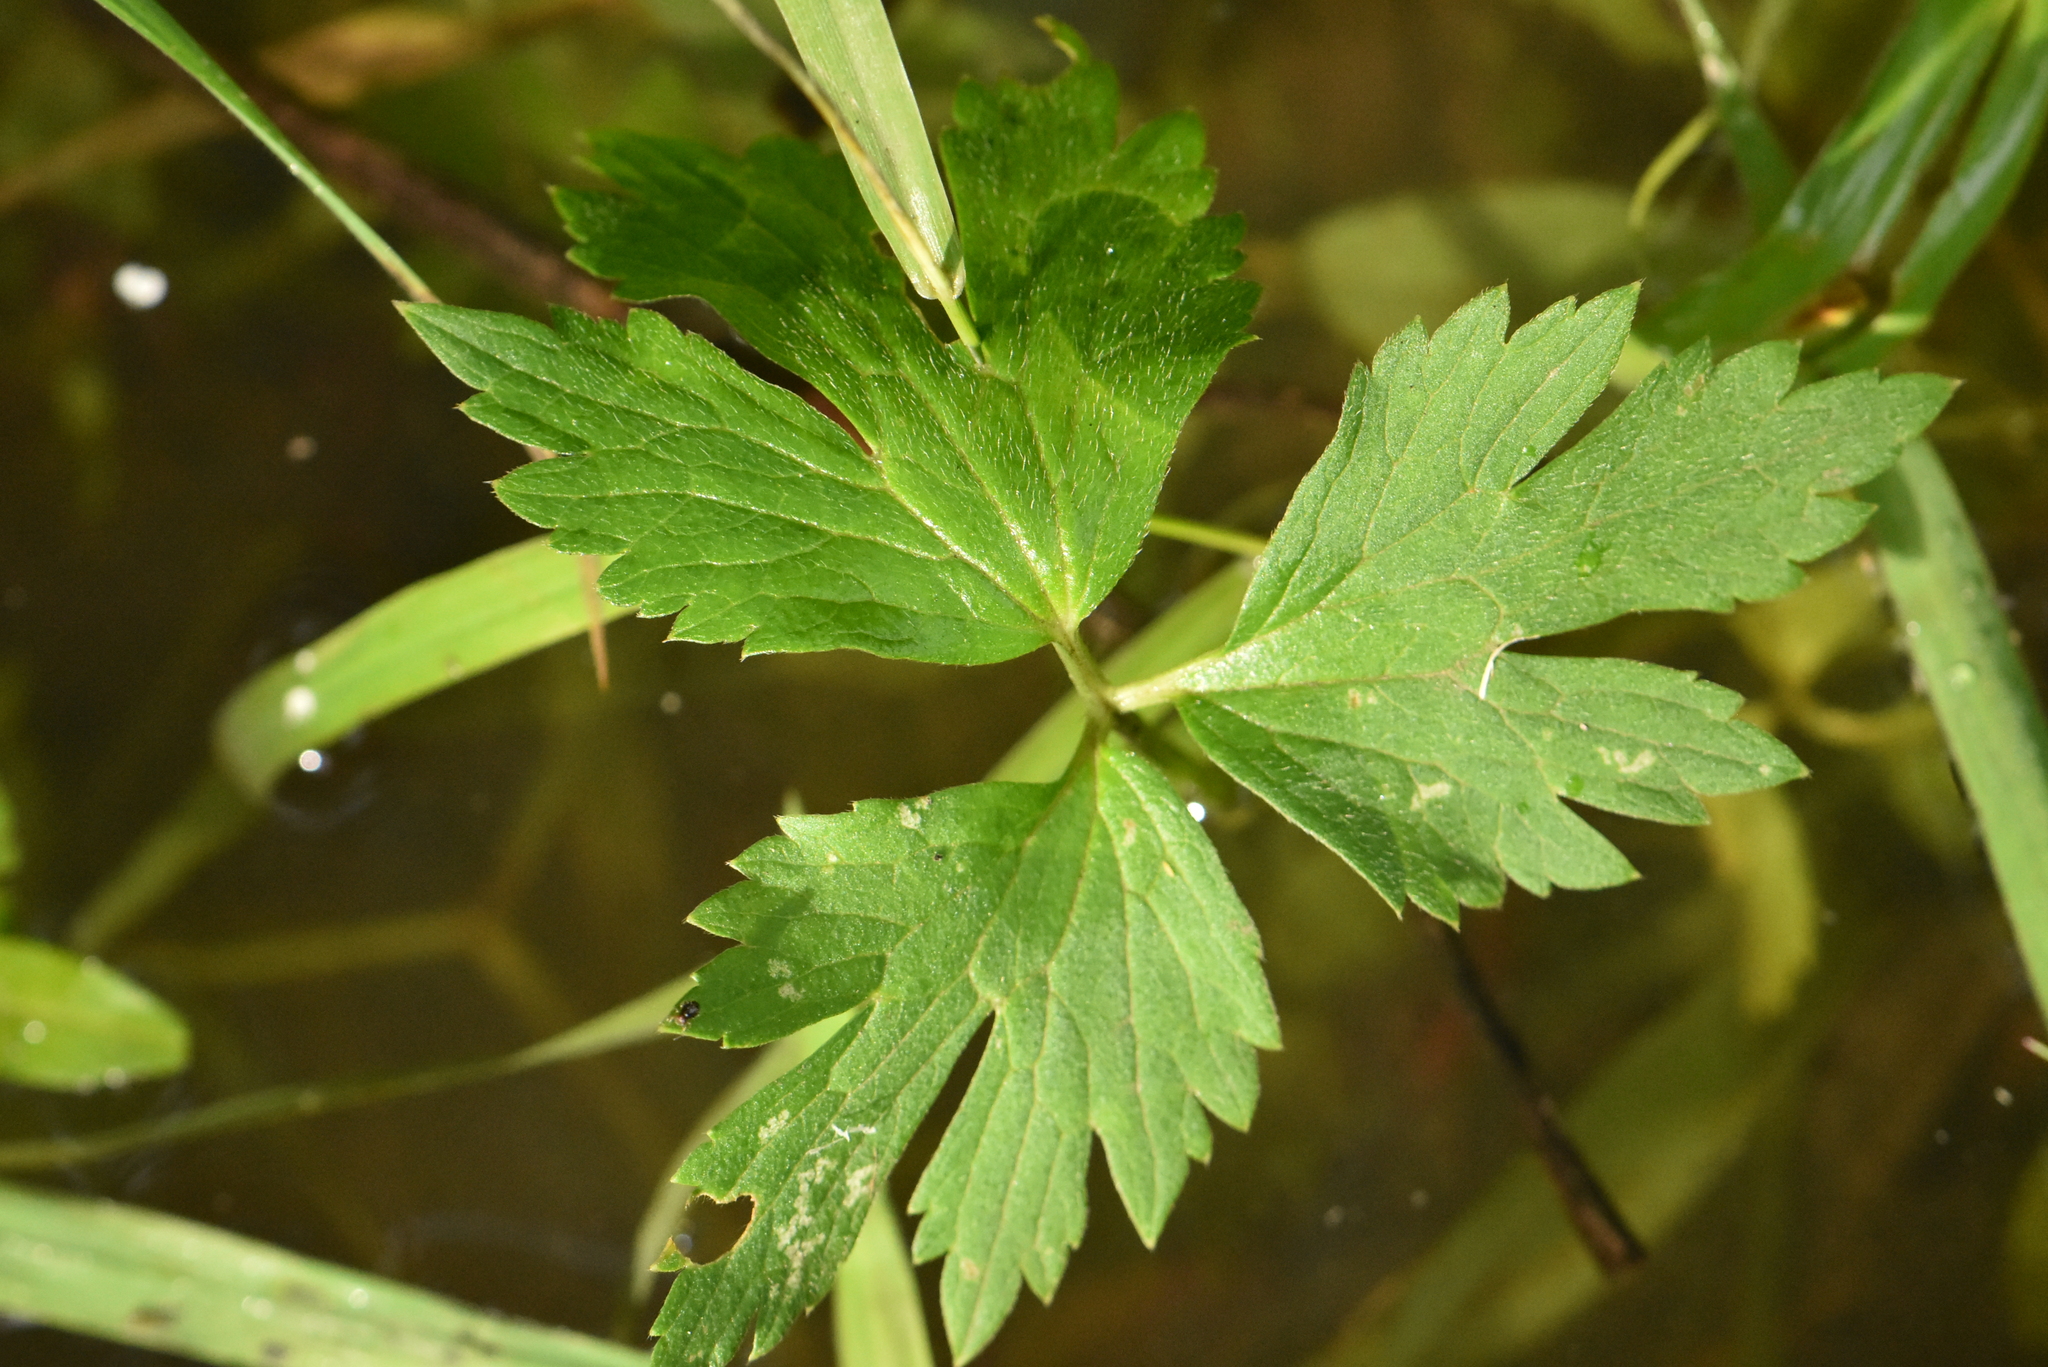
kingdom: Plantae
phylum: Tracheophyta
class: Magnoliopsida
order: Ranunculales
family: Ranunculaceae
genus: Ranunculus
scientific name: Ranunculus repens
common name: Creeping buttercup
